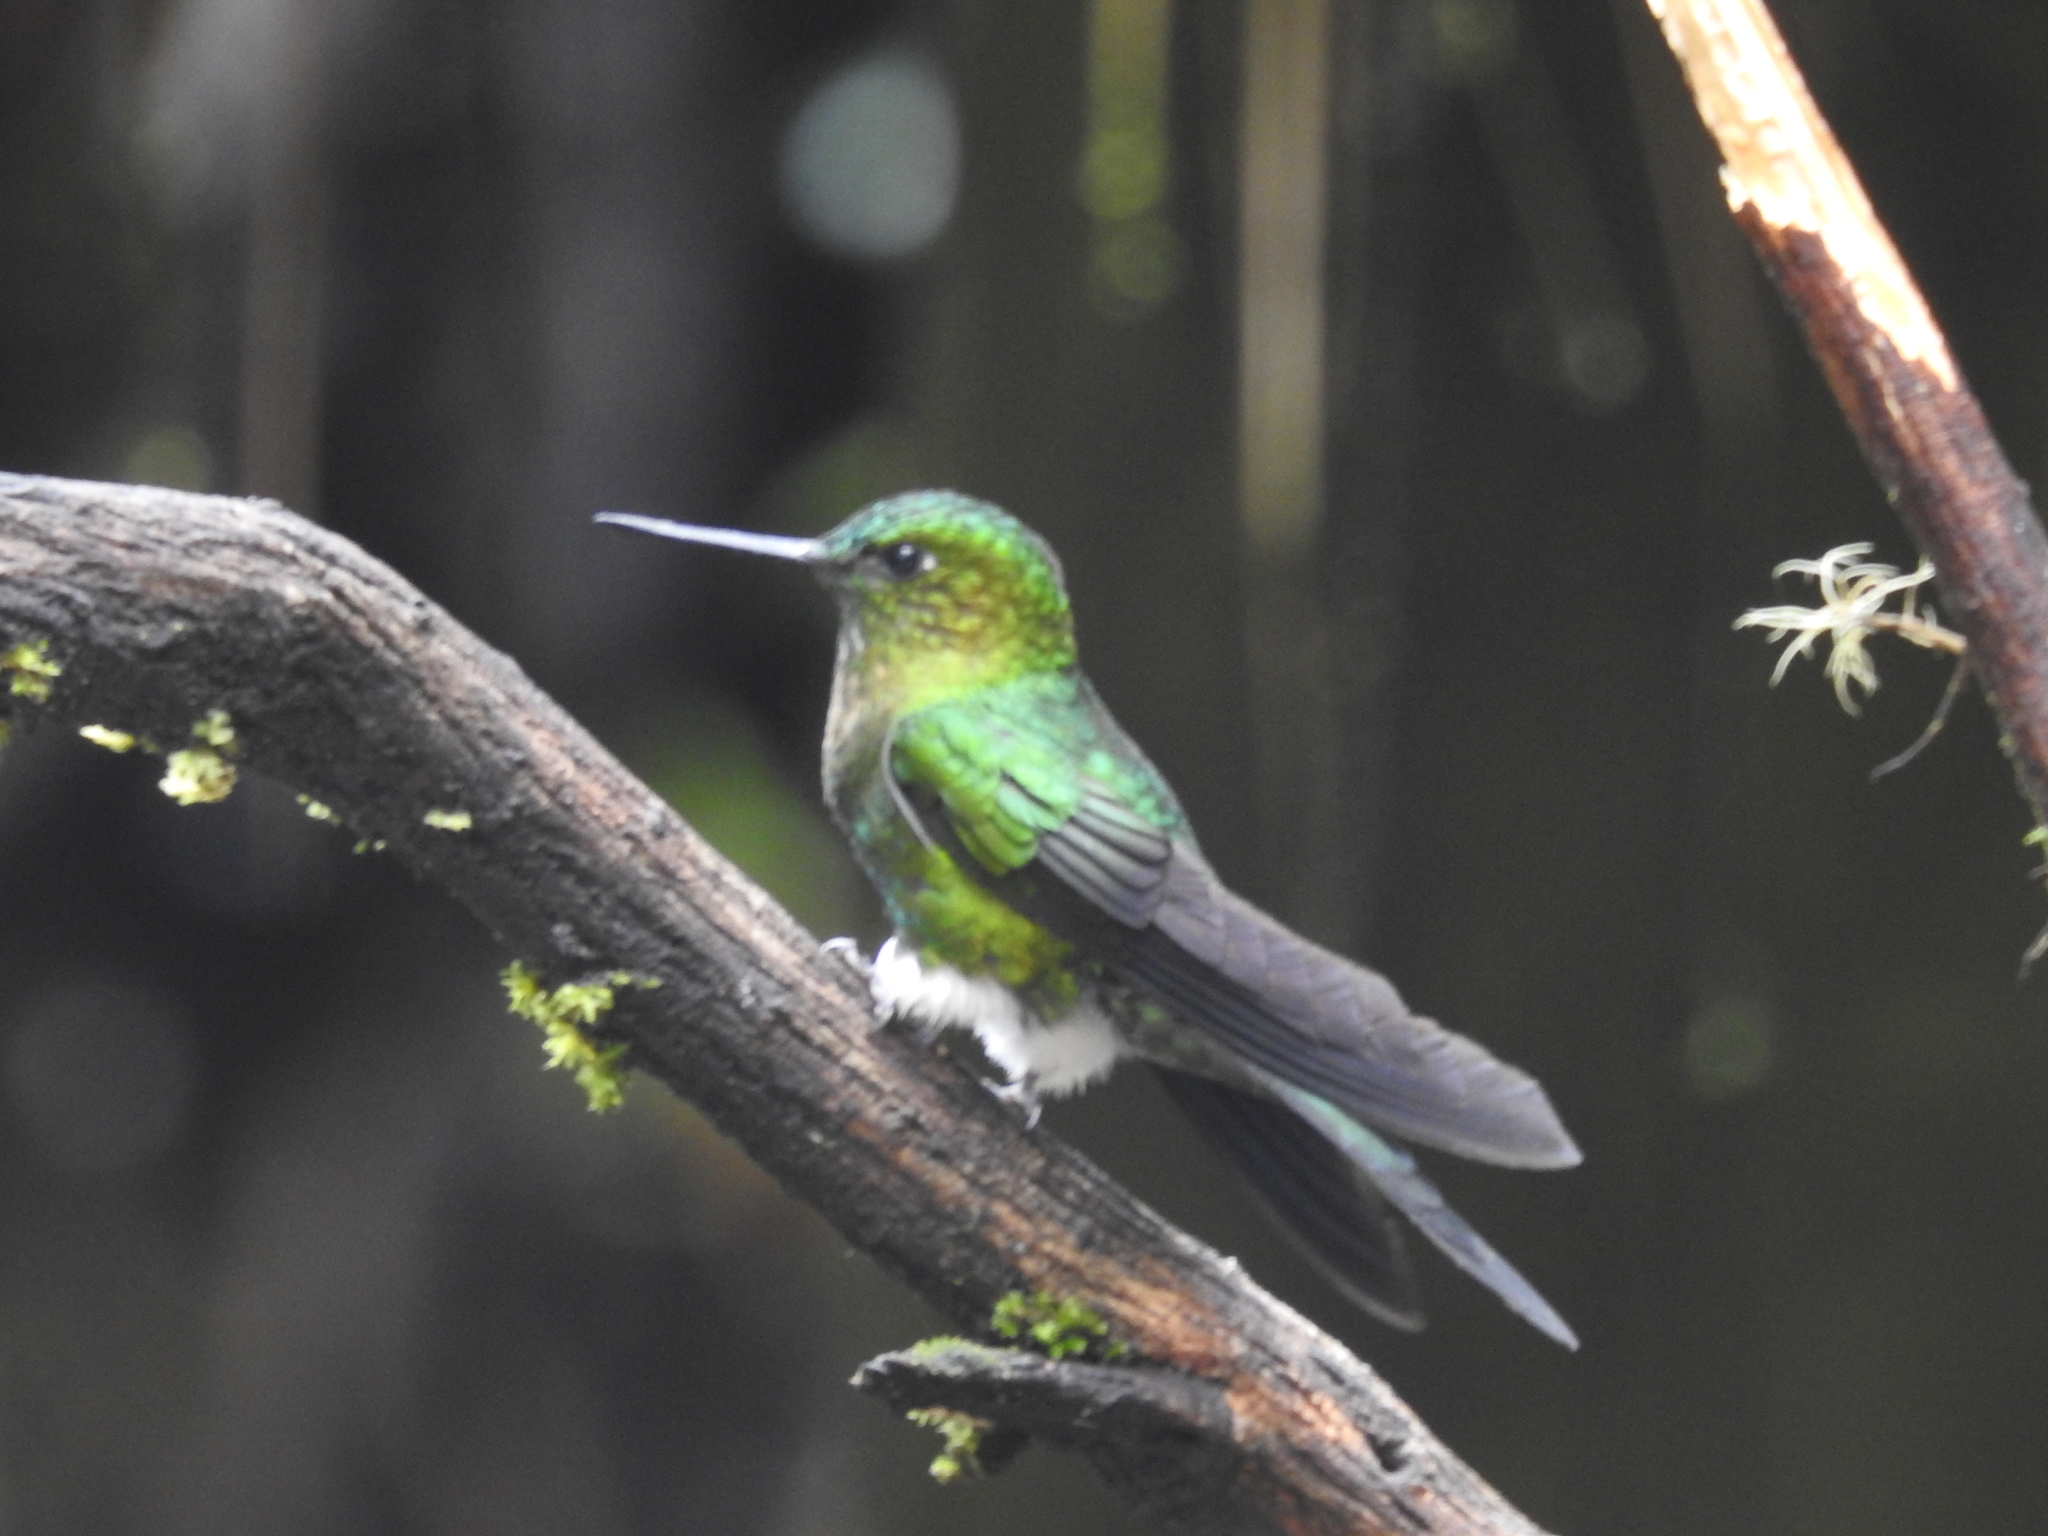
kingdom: Animalia
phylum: Chordata
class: Aves
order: Apodiformes
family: Trochilidae
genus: Eriocnemis
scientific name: Eriocnemis mosquera
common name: Golden-breasted puffleg
